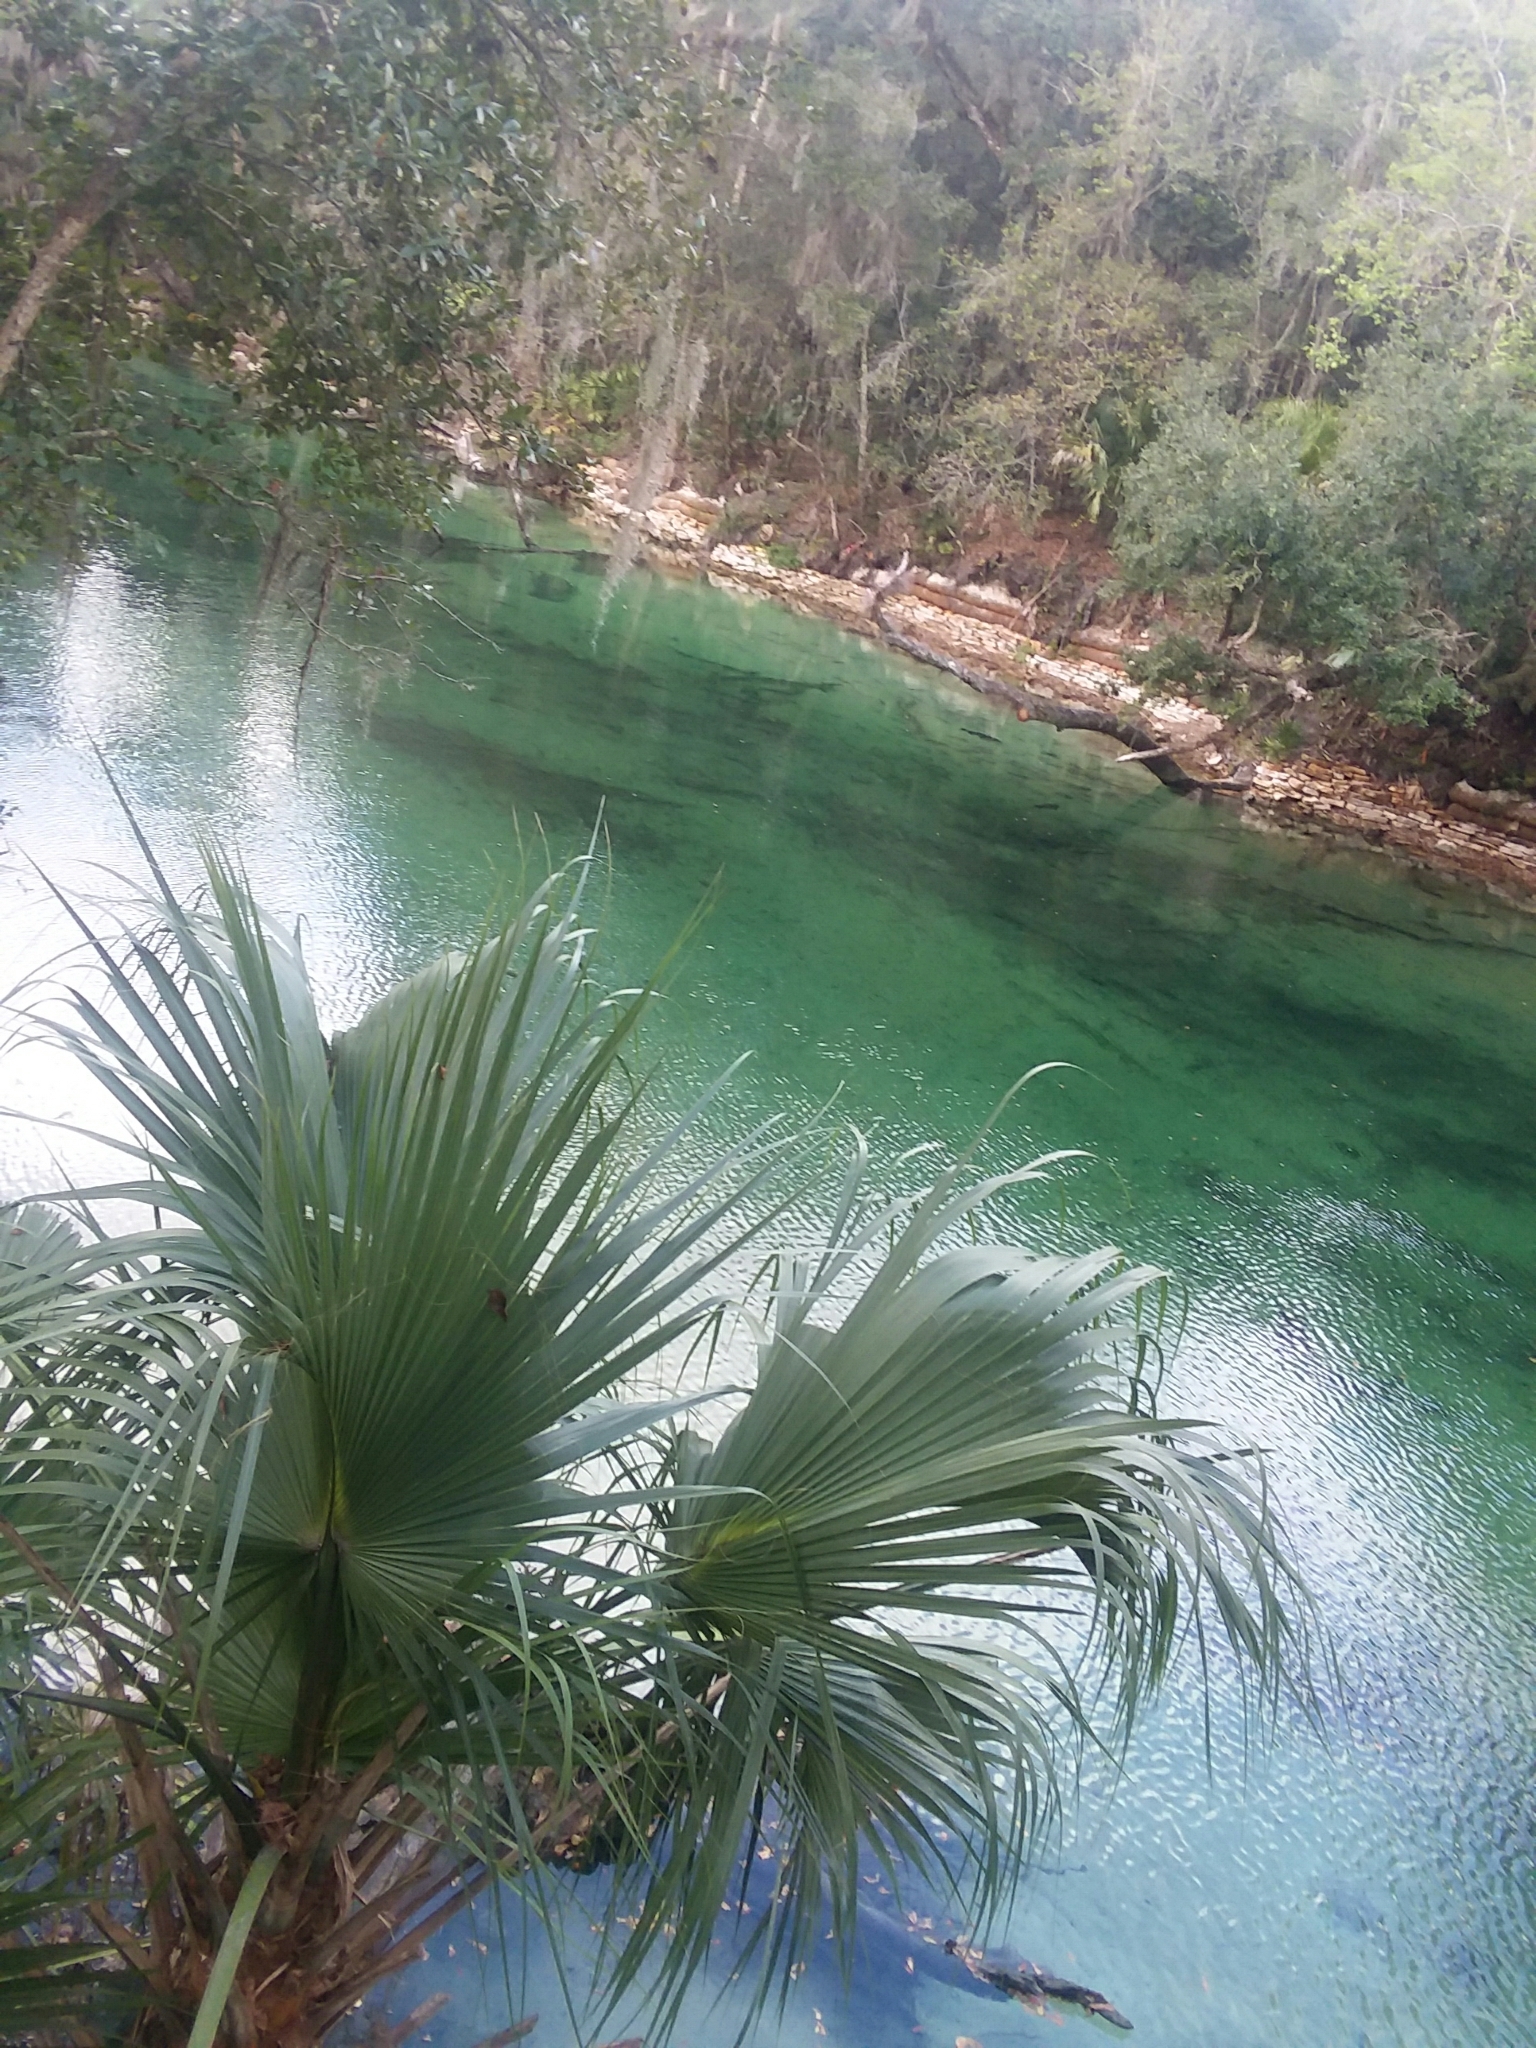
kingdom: Animalia
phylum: Chordata
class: Mammalia
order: Sirenia
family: Trichechidae
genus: Trichechus
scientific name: Trichechus manatus
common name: West indian manatee
